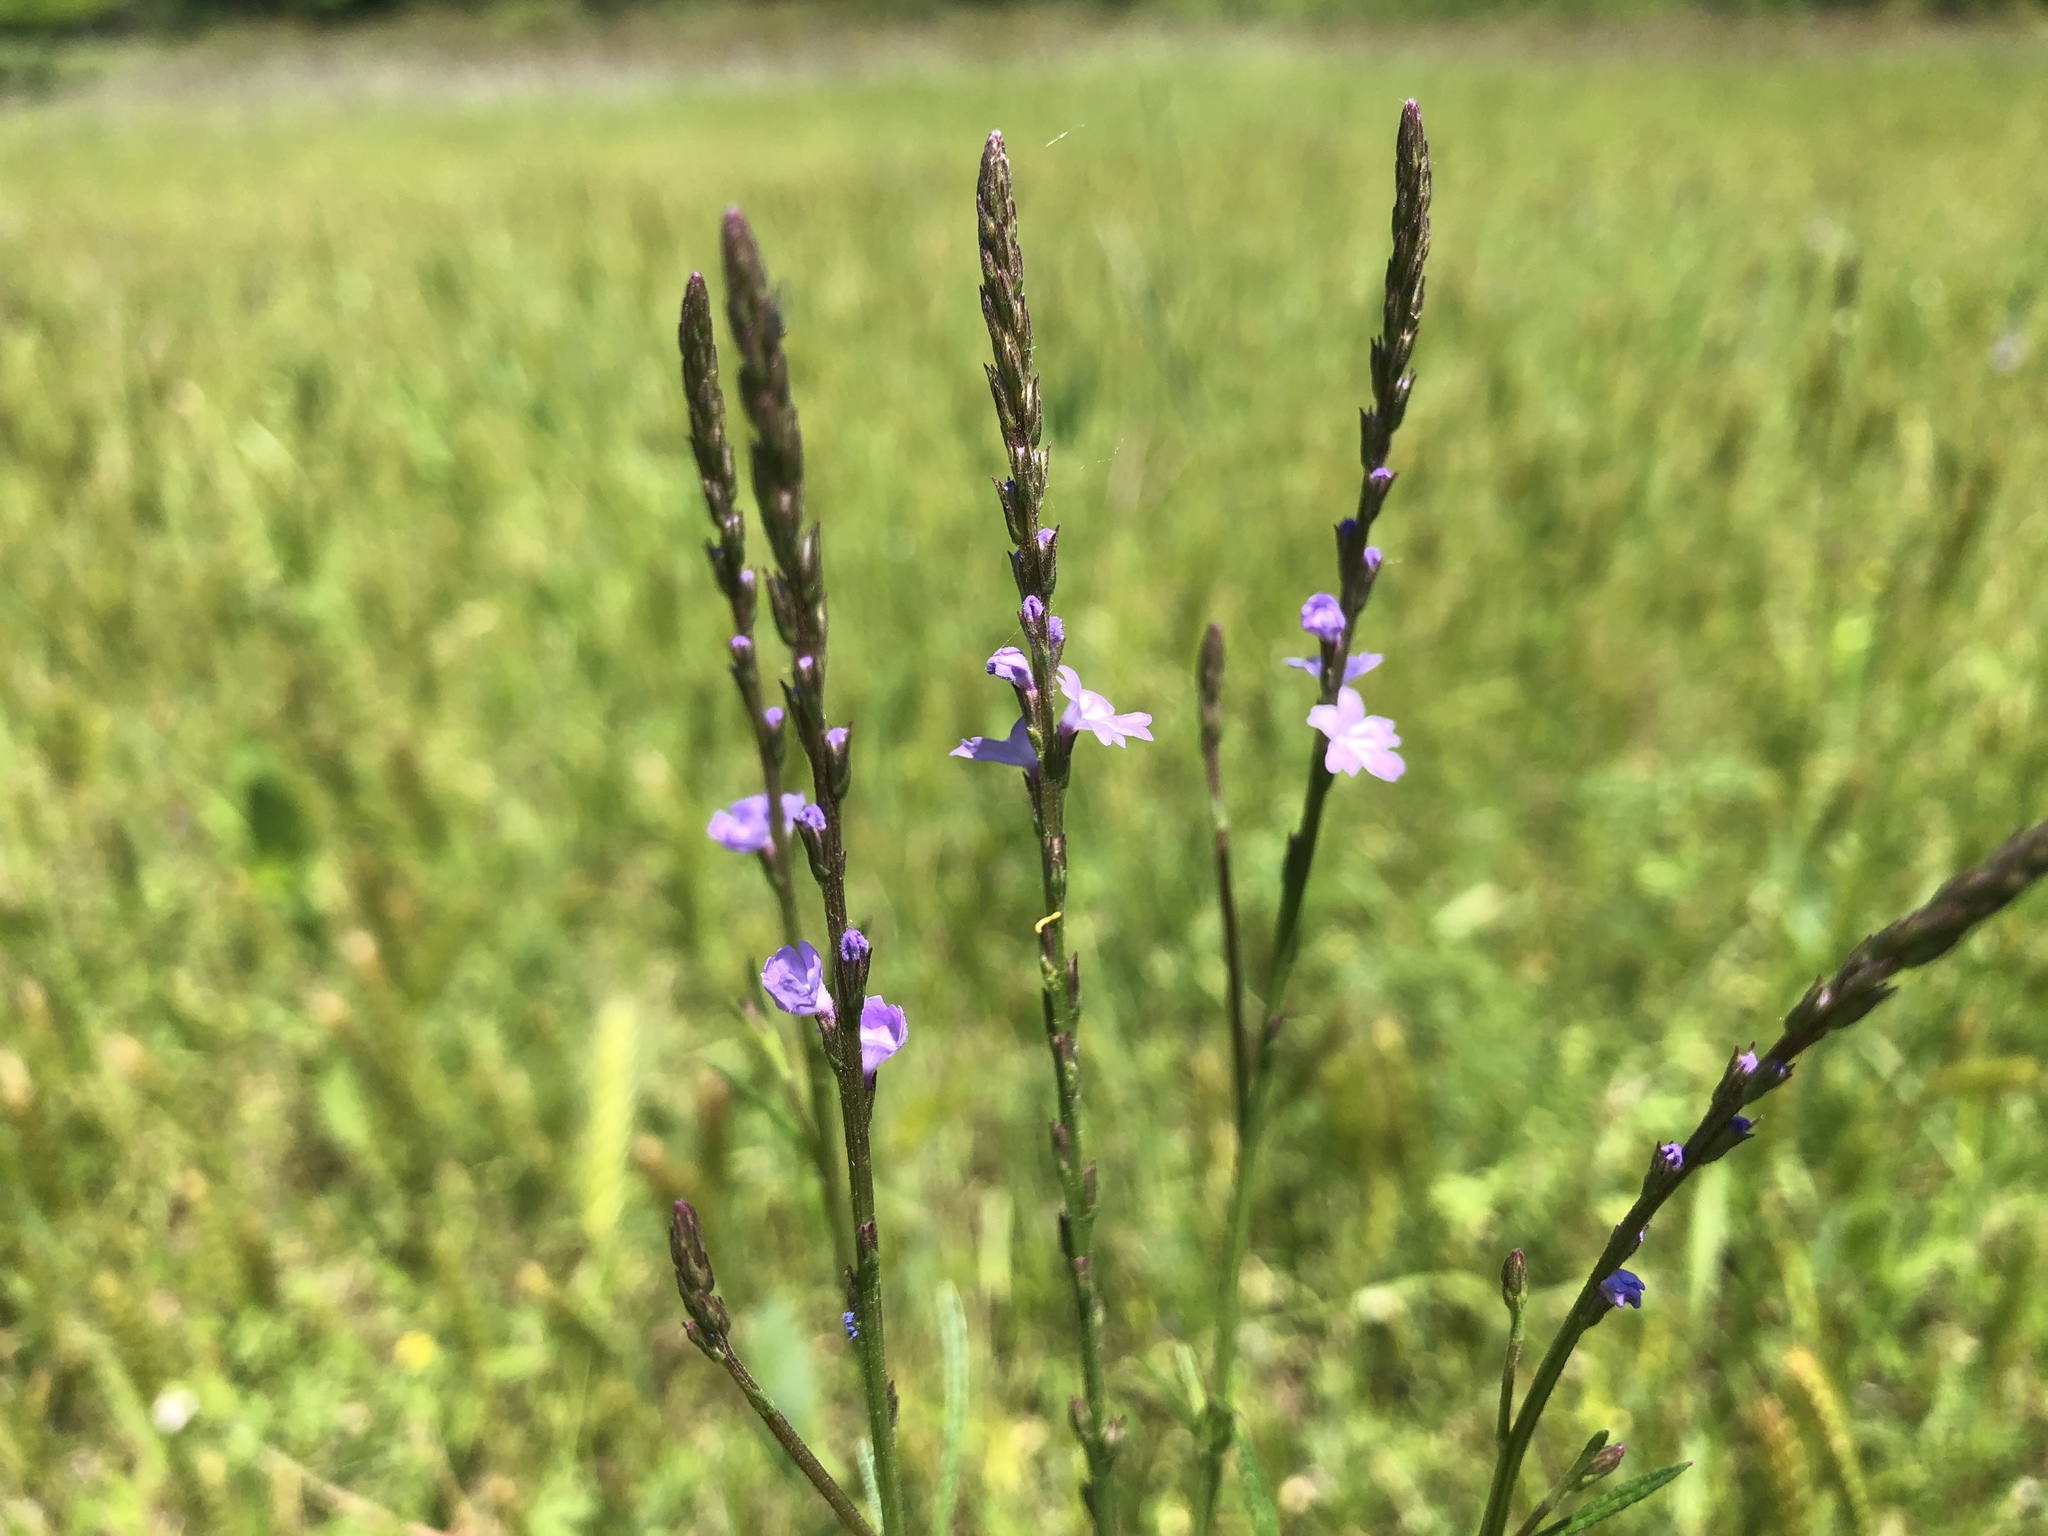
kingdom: Plantae
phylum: Tracheophyta
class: Magnoliopsida
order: Lamiales
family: Verbenaceae
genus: Verbena
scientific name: Verbena halei
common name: Texas vervain
